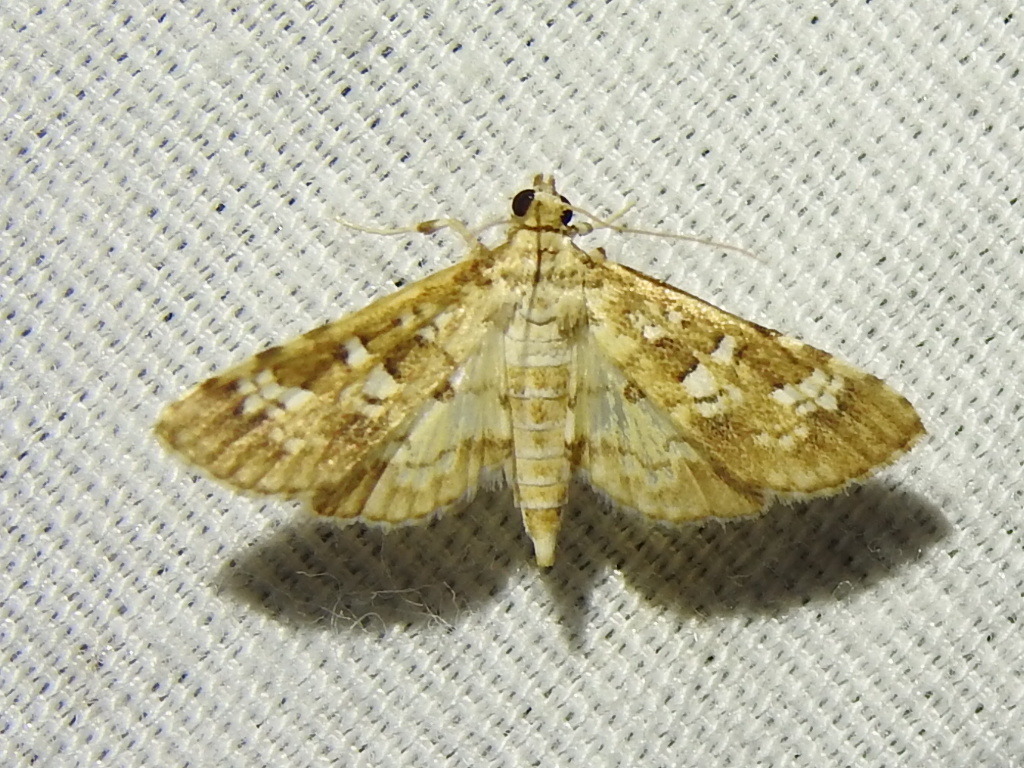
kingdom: Animalia
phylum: Arthropoda
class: Insecta
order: Lepidoptera
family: Crambidae
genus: Samea
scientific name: Samea multiplicalis
